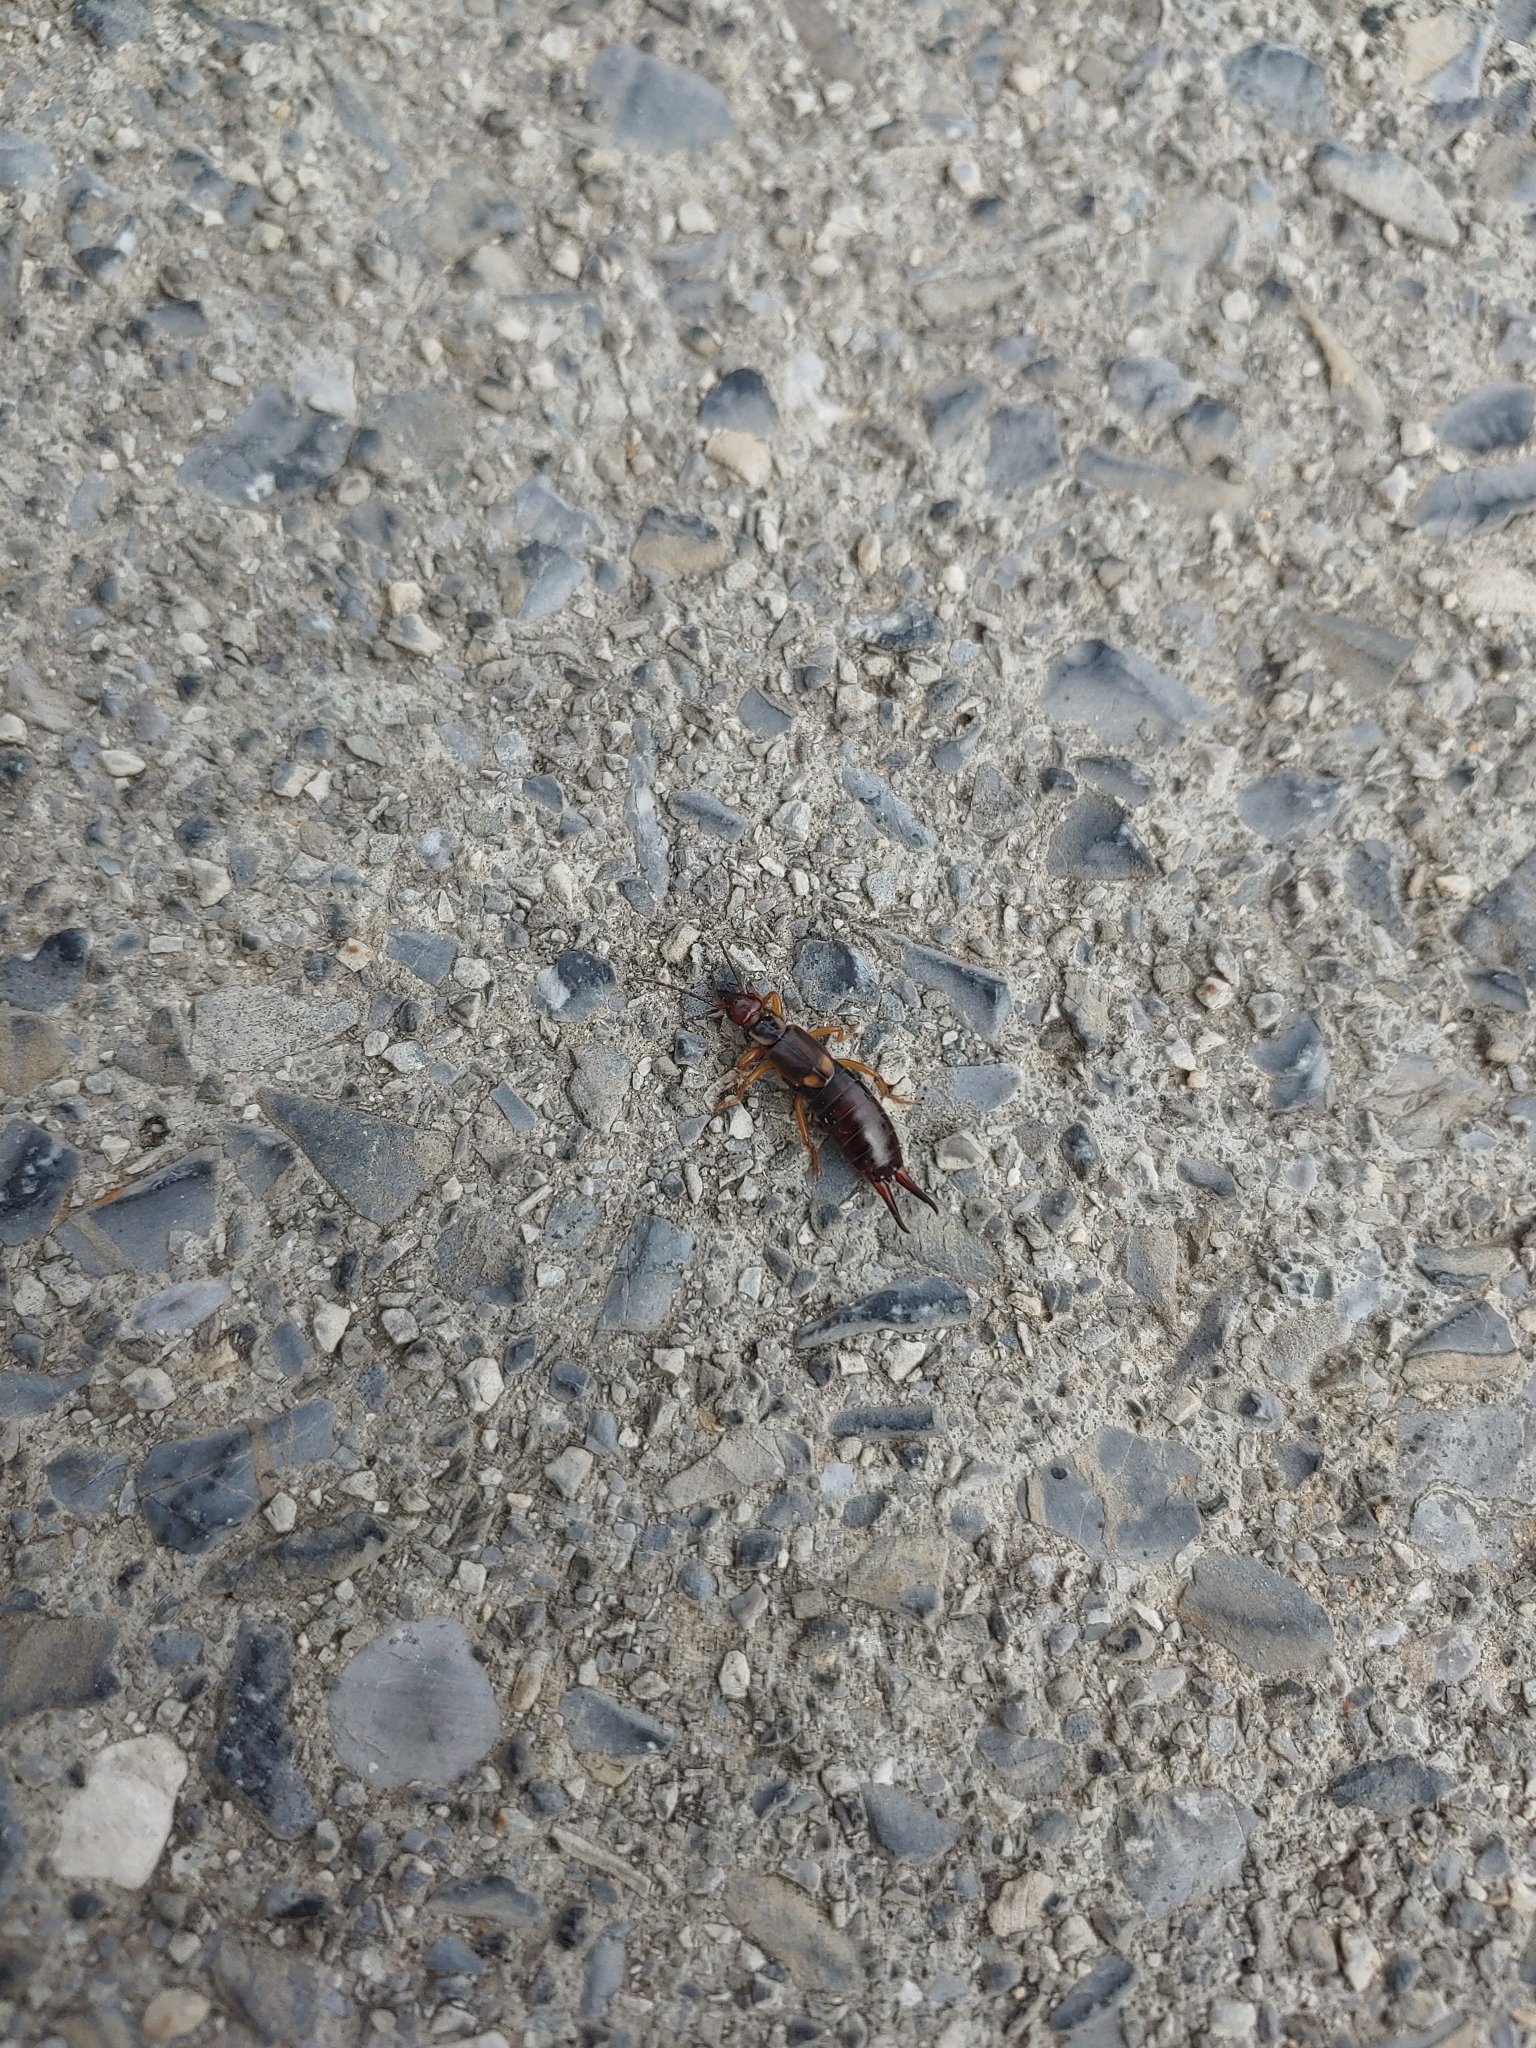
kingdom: Animalia
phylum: Arthropoda
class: Insecta
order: Dermaptera
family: Forficulidae
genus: Forficula
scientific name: Forficula
